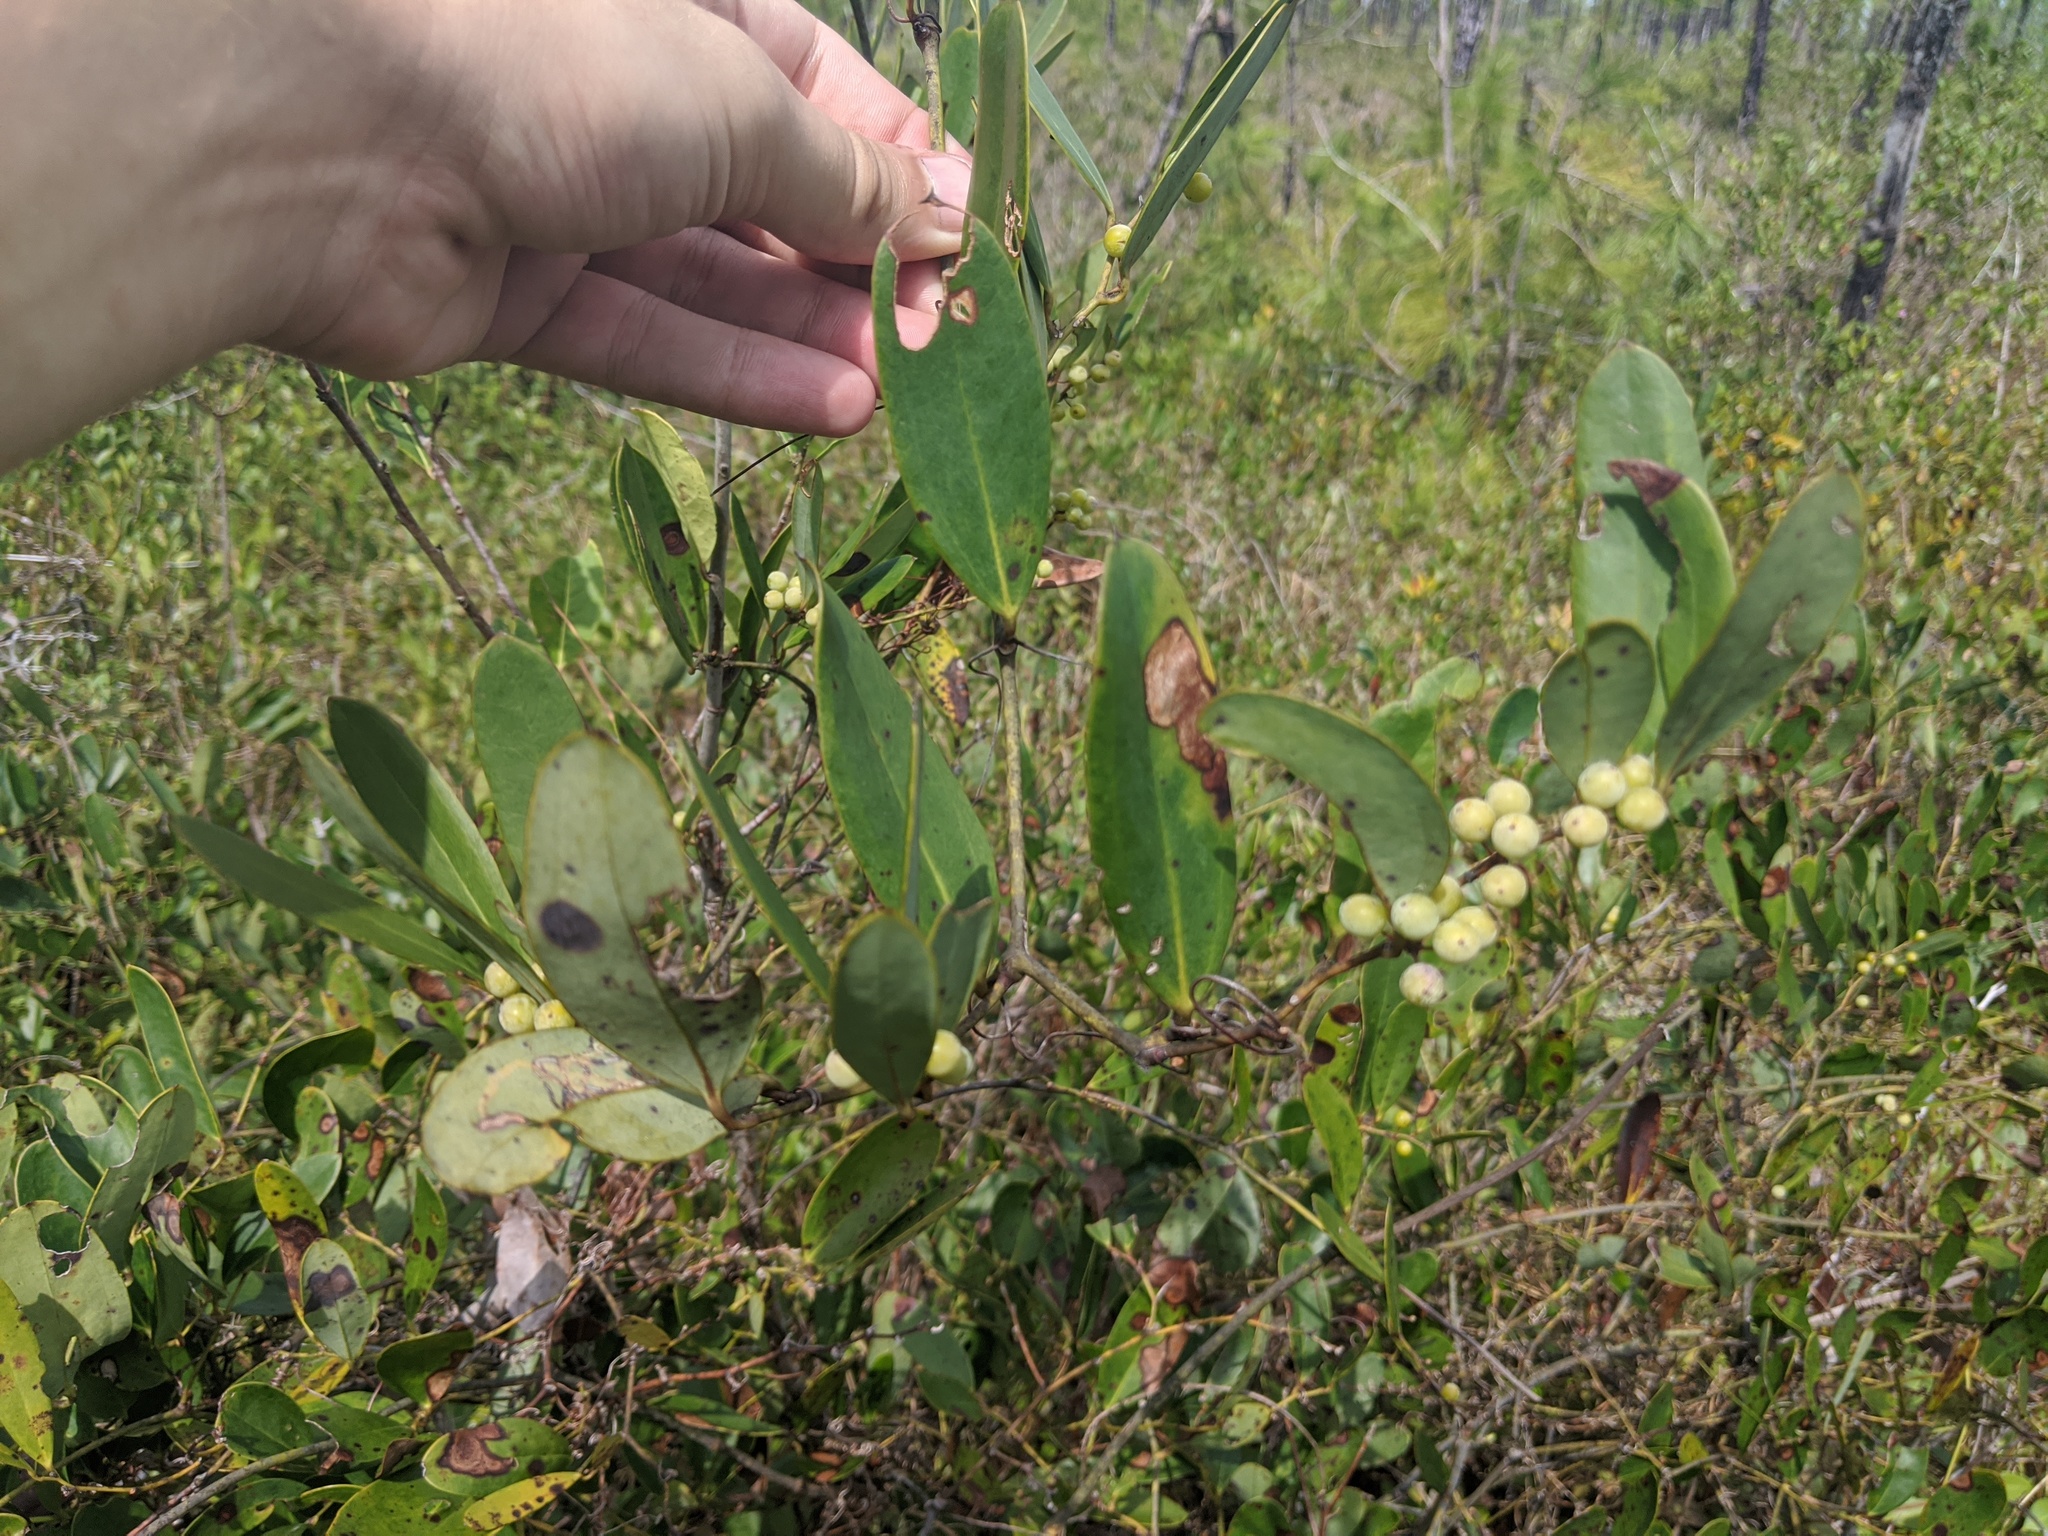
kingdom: Plantae
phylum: Tracheophyta
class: Liliopsida
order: Liliales
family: Smilacaceae
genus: Smilax
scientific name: Smilax laurifolia
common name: Bamboovine
